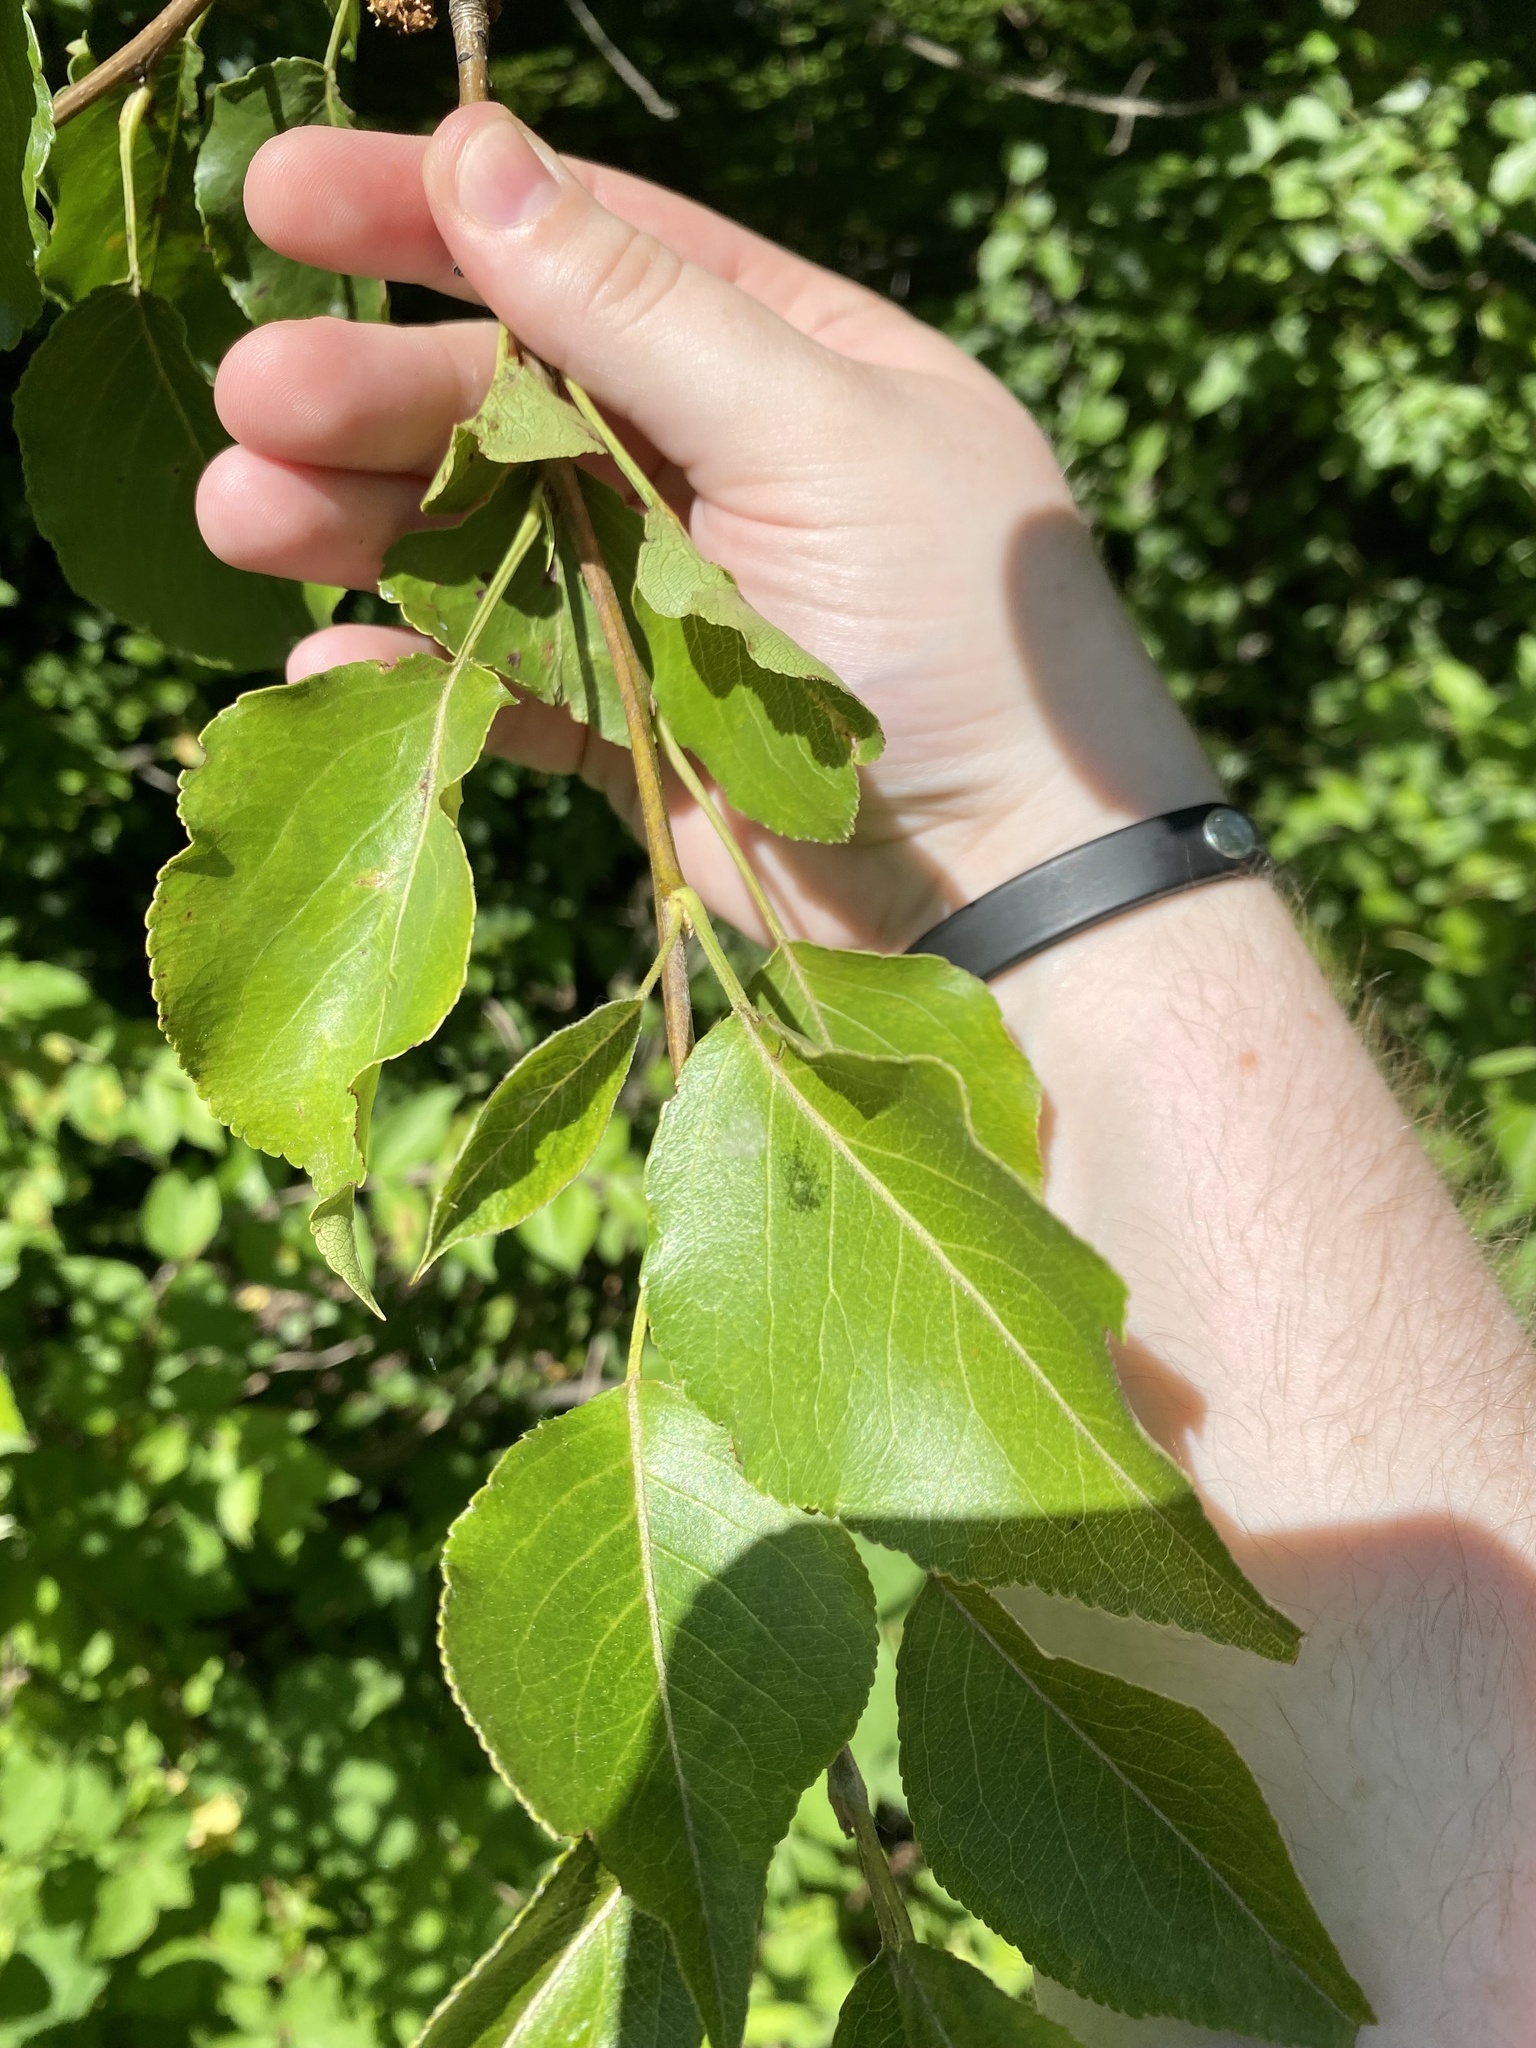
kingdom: Plantae
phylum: Tracheophyta
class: Magnoliopsida
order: Rosales
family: Rosaceae
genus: Pyrus
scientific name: Pyrus calleryana
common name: Callery pear
